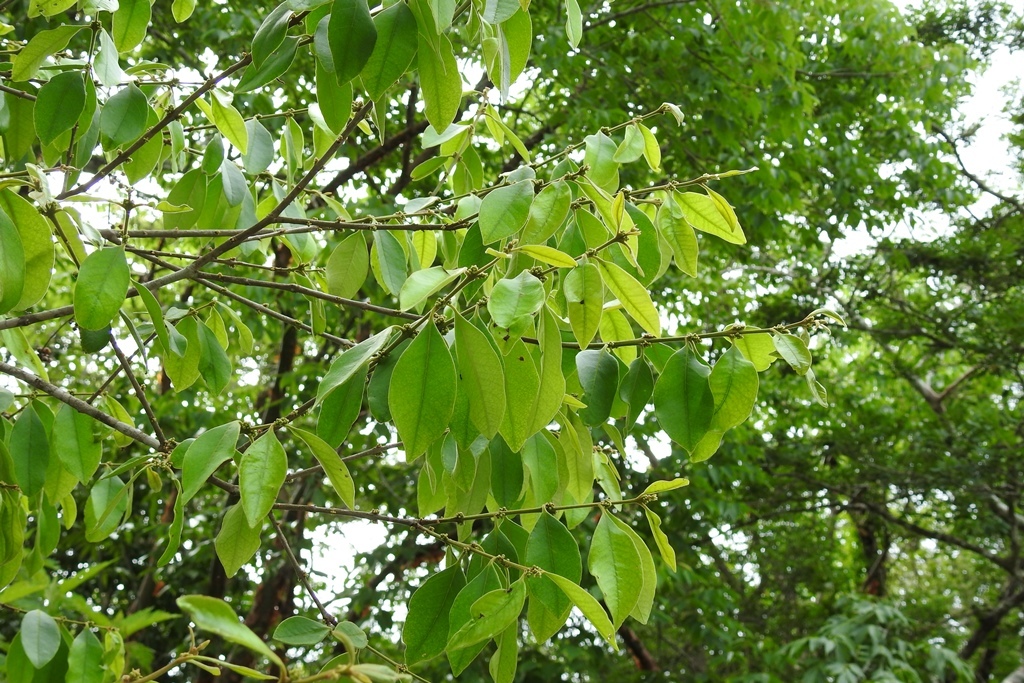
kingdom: Plantae
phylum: Tracheophyta
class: Magnoliopsida
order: Myrtales
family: Myrtaceae
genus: Eugenia
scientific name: Eugenia capuli
